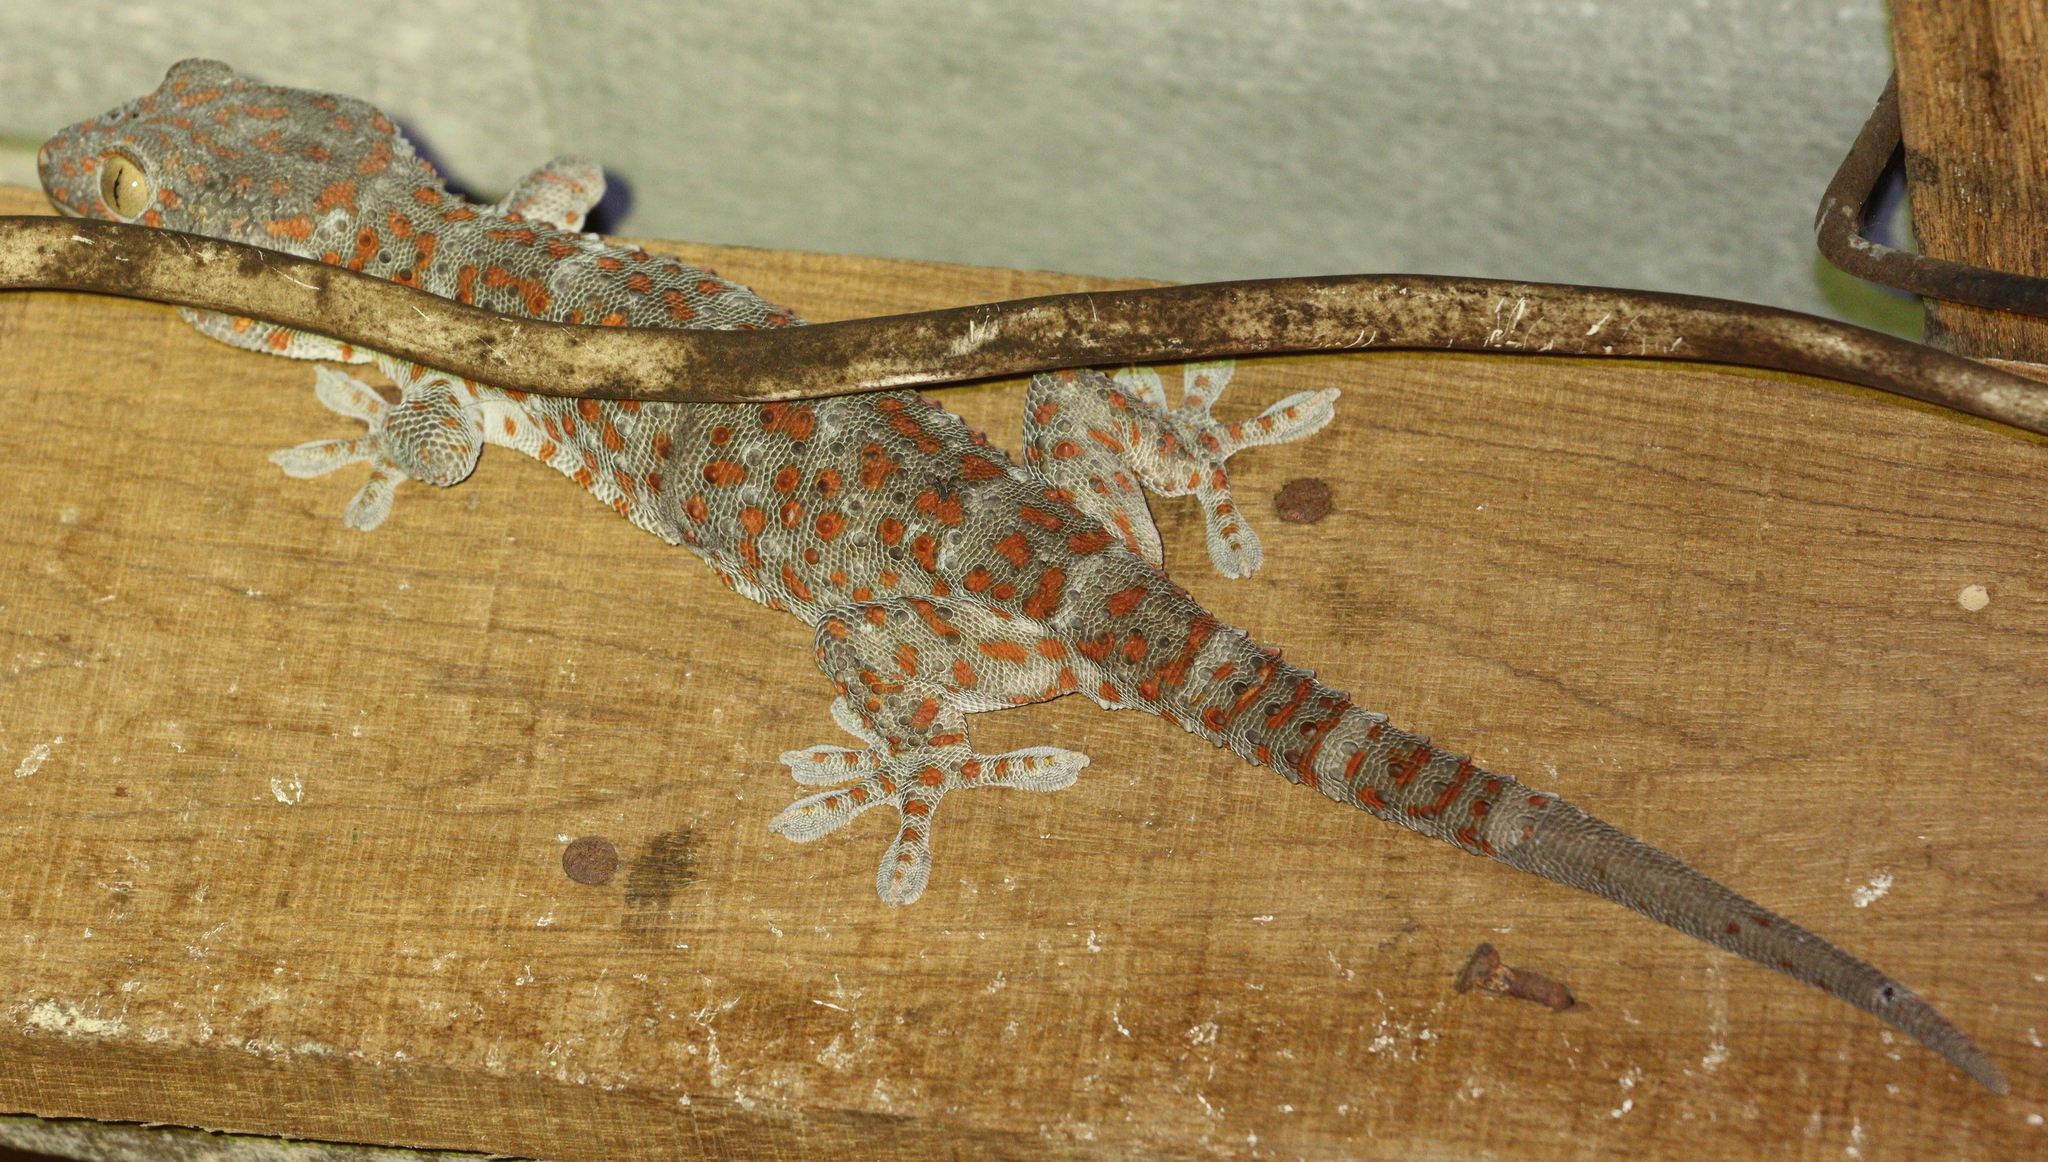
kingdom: Animalia
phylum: Chordata
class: Squamata
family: Gekkonidae
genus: Gekko
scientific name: Gekko gecko
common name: Tokay gecko
